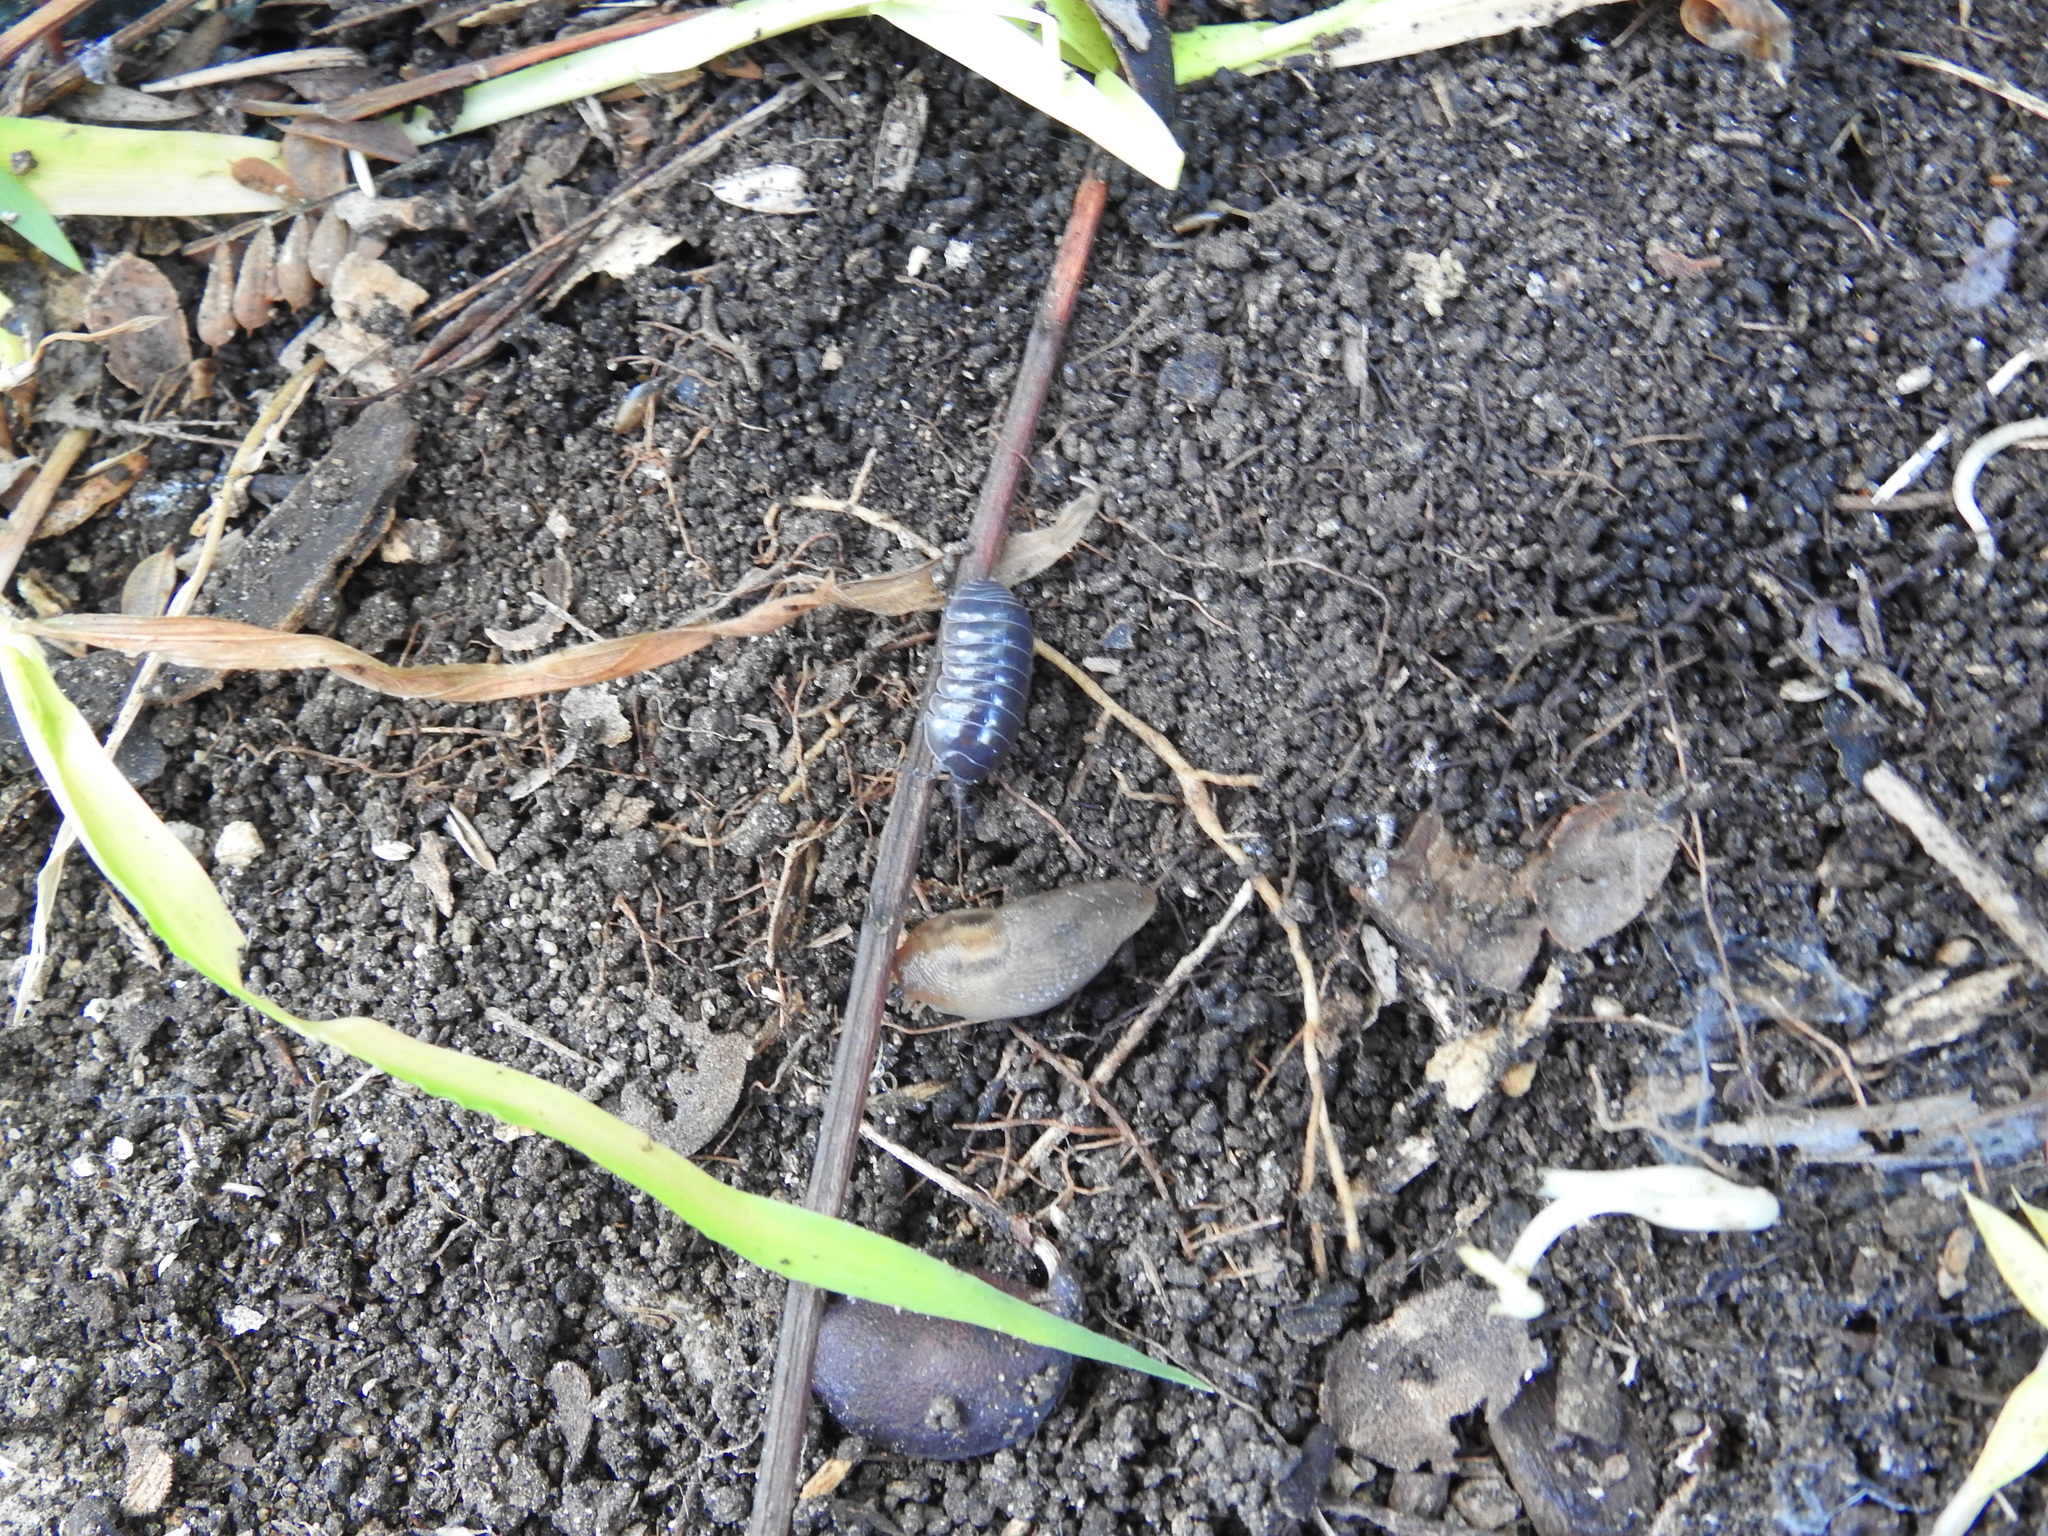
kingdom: Animalia
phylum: Arthropoda
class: Malacostraca
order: Isopoda
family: Armadillidiidae
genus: Armadillidium
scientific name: Armadillidium vulgare
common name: Common pill woodlouse
